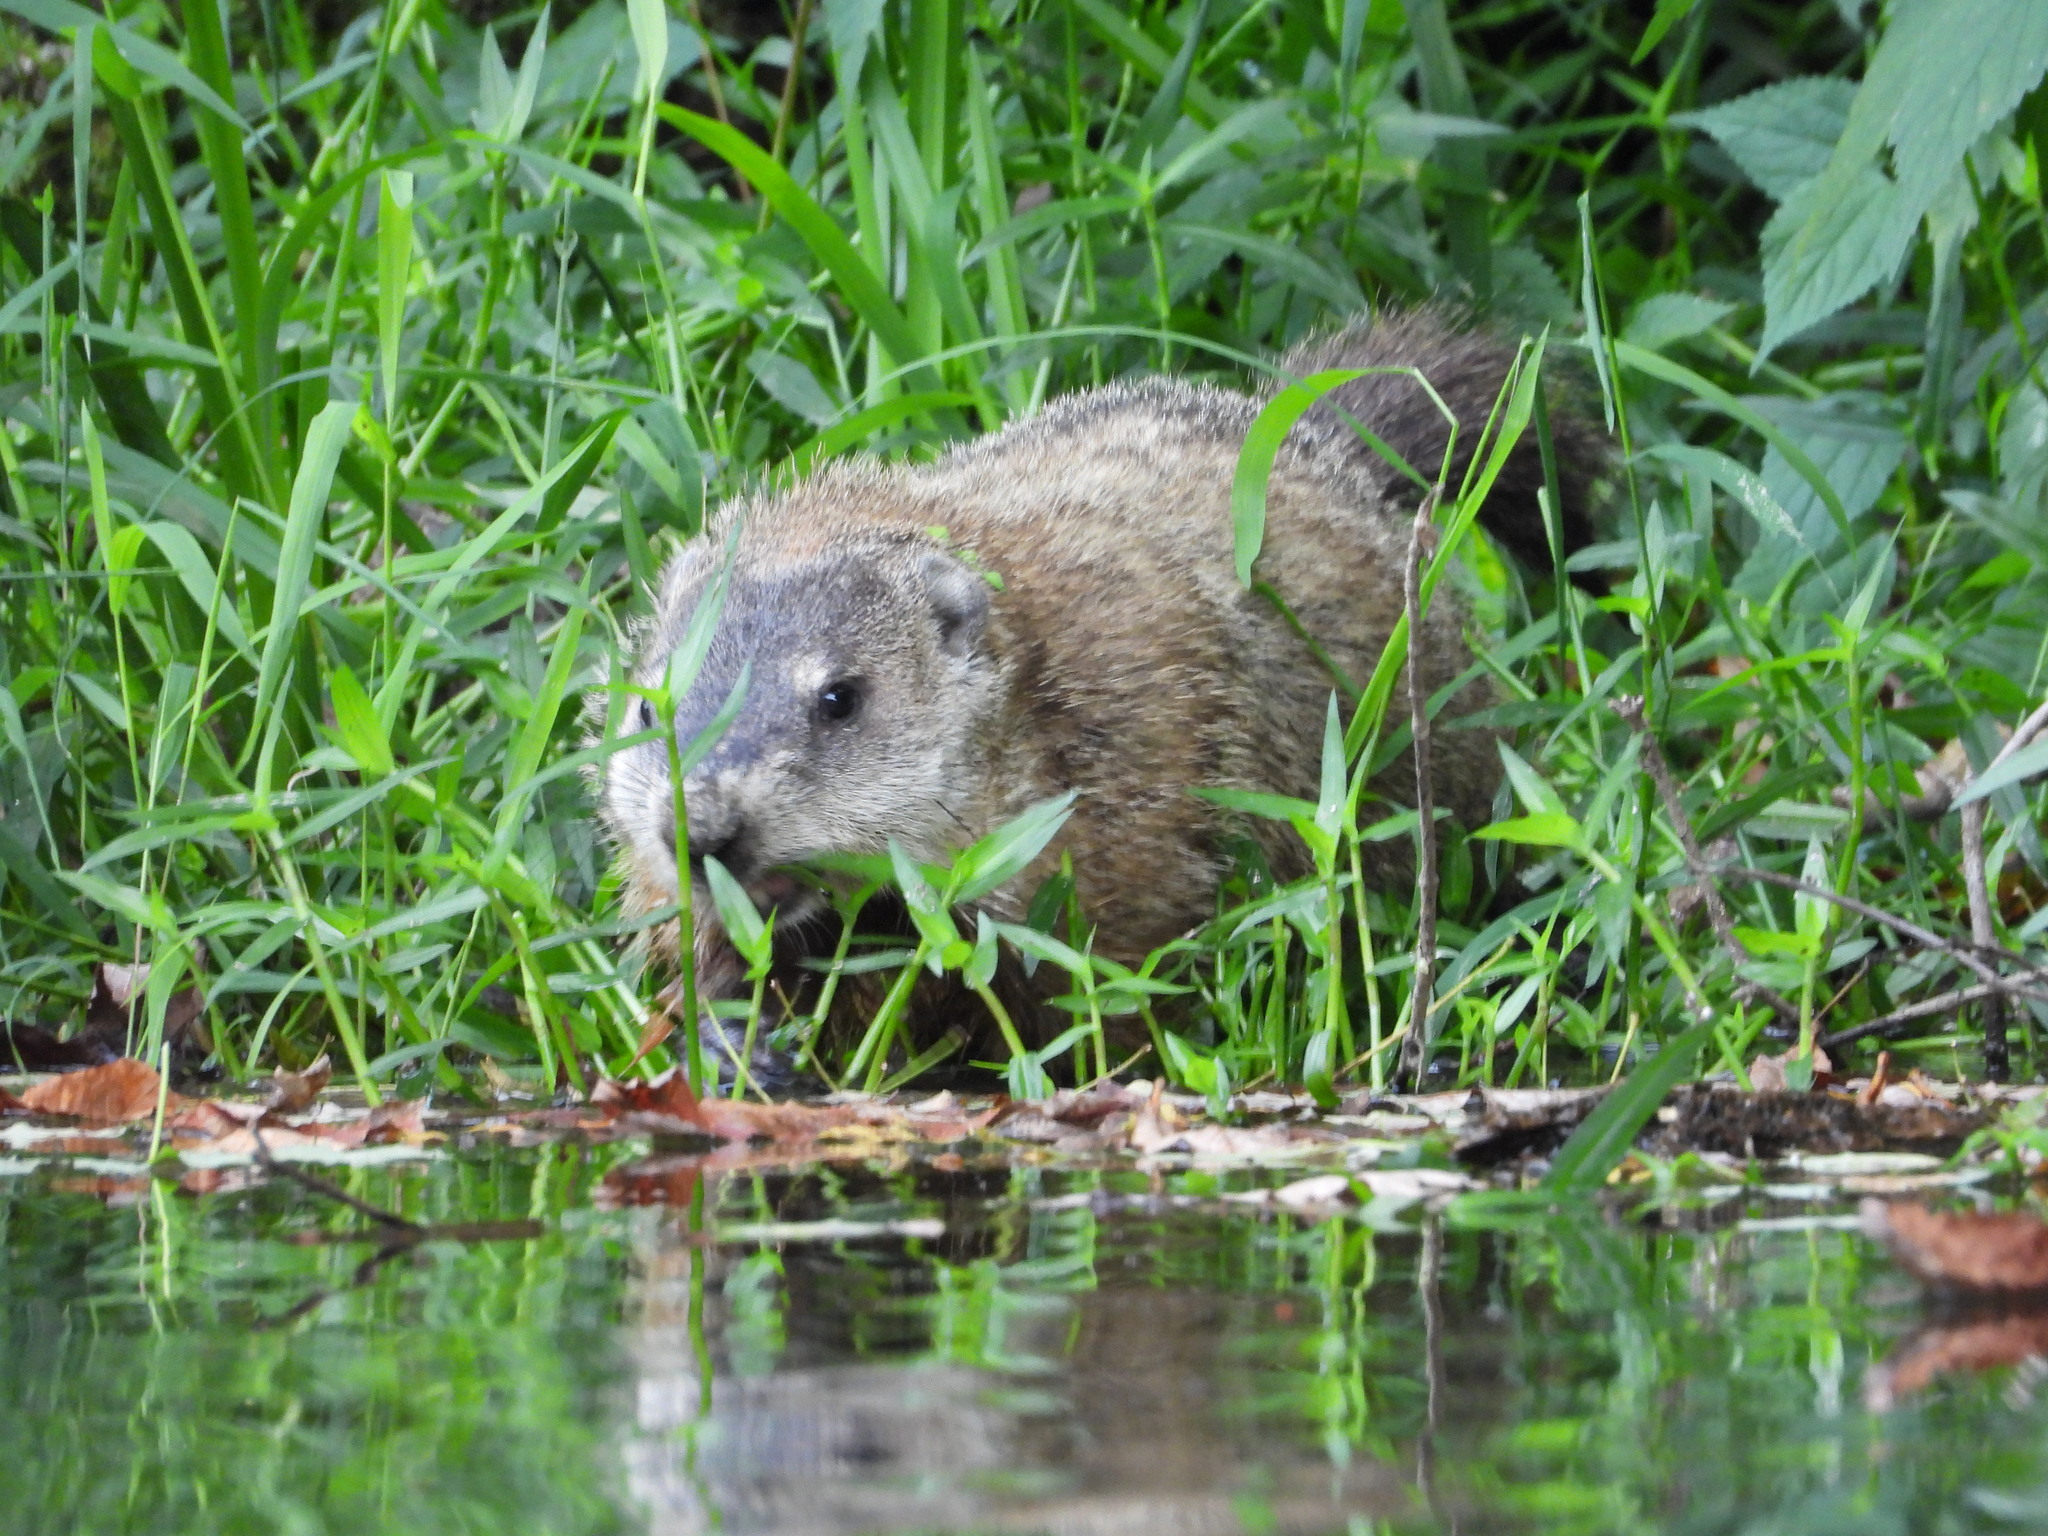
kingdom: Animalia
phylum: Chordata
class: Mammalia
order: Rodentia
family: Sciuridae
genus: Marmota
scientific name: Marmota monax
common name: Groundhog
